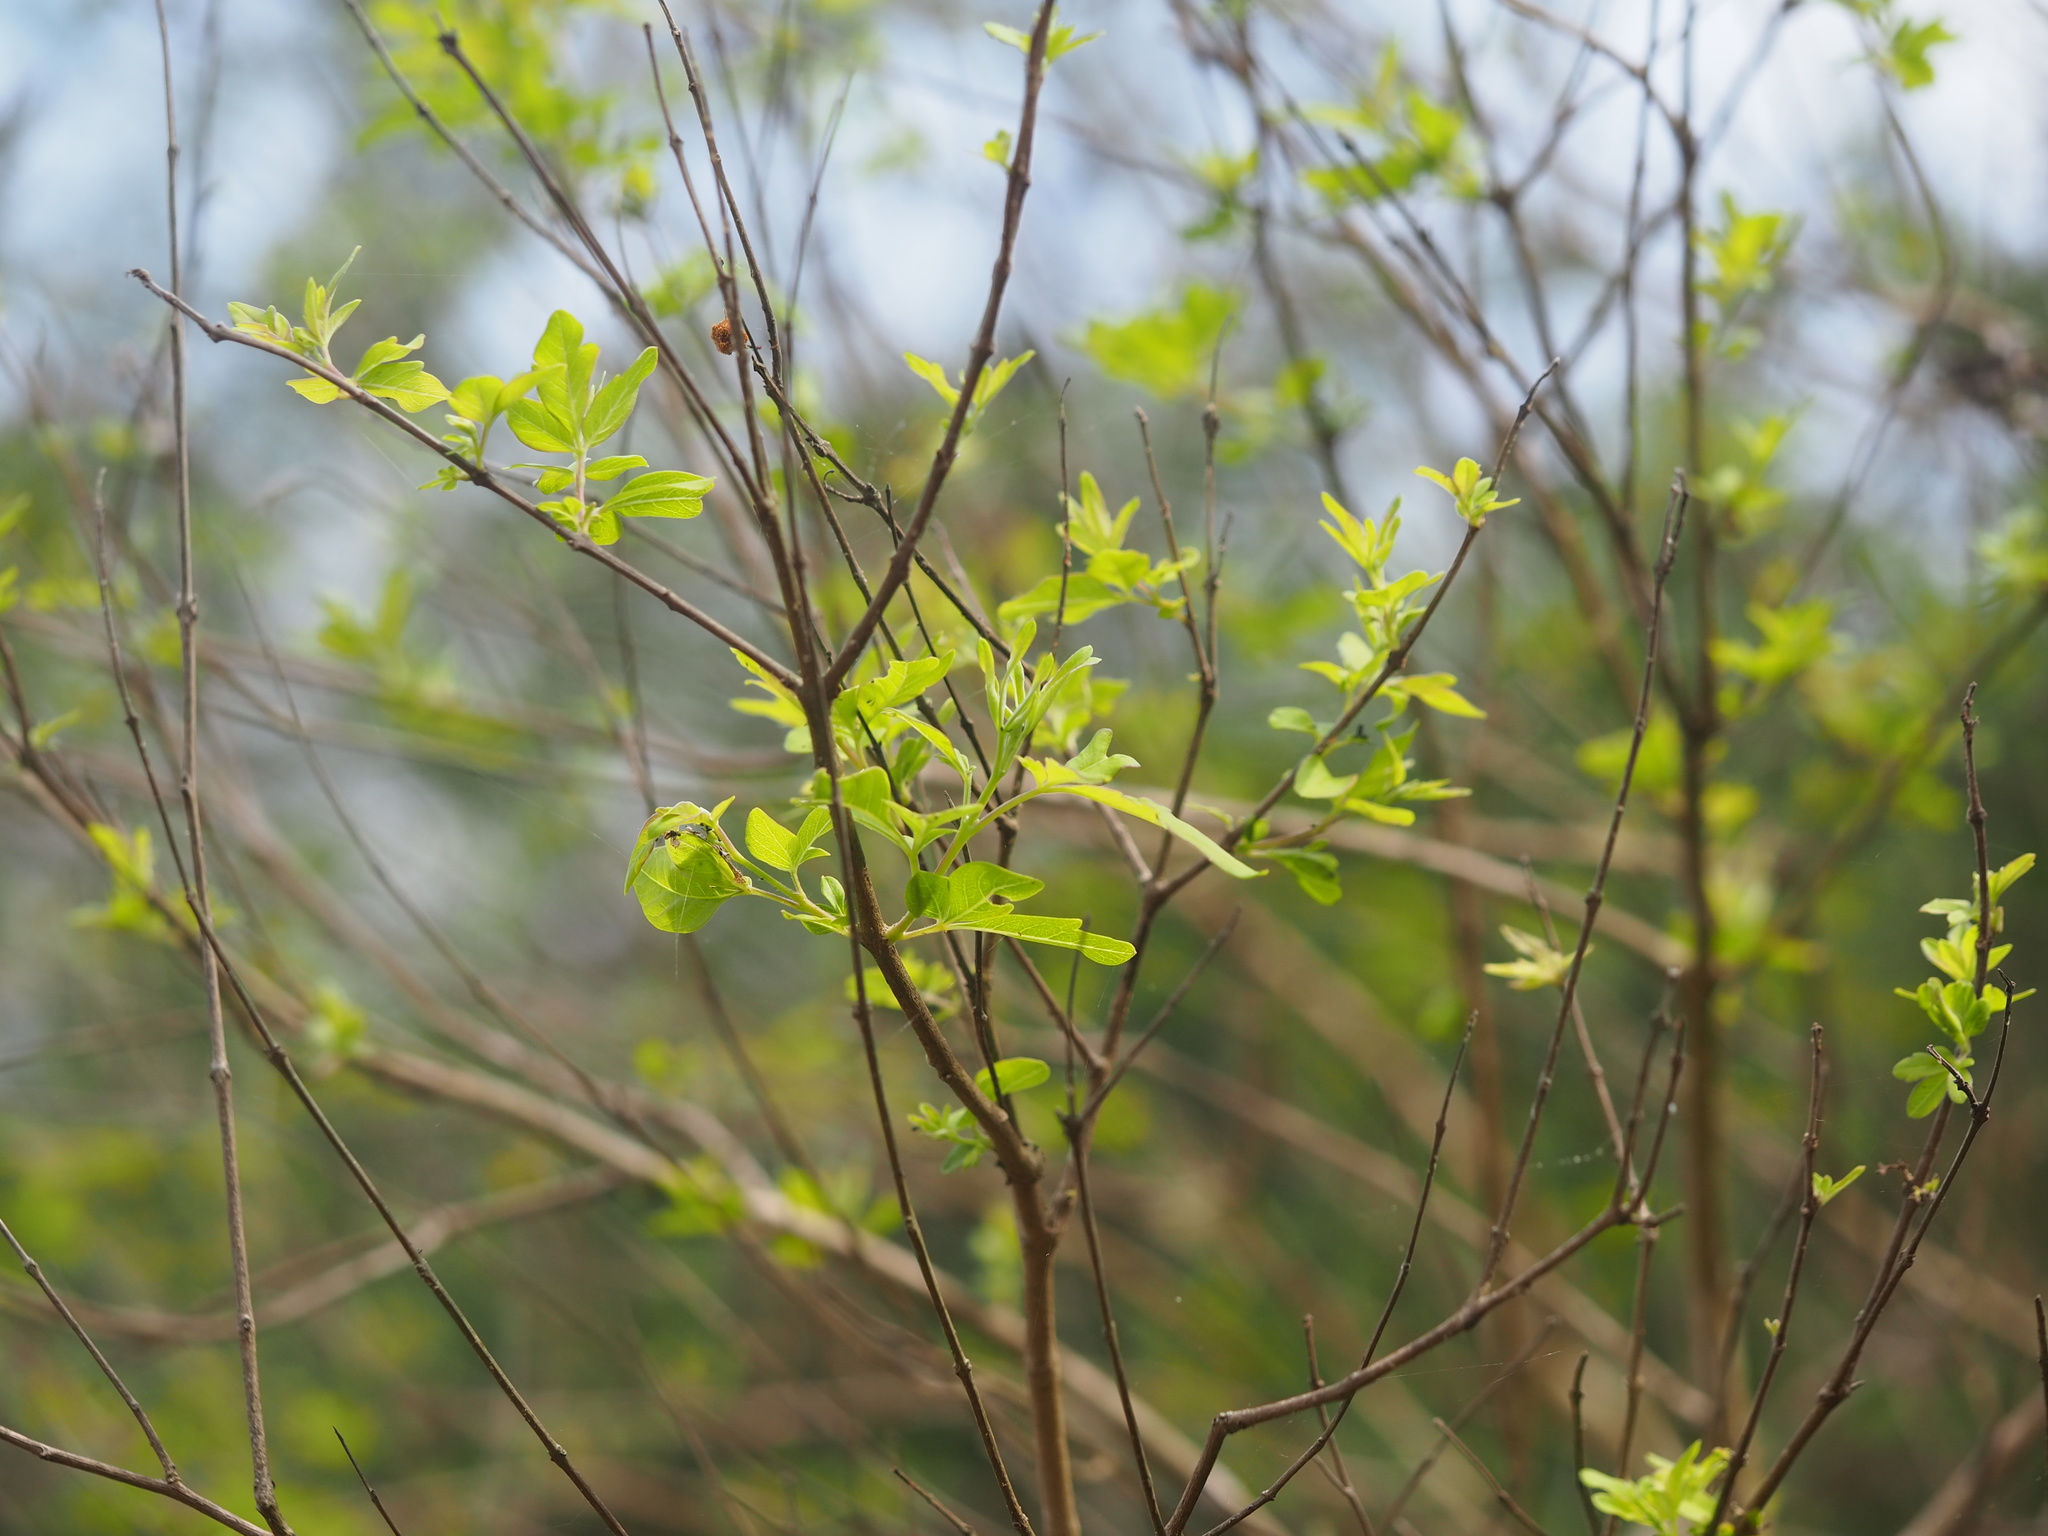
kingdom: Plantae
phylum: Tracheophyta
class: Magnoliopsida
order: Lamiales
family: Lamiaceae
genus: Vitex
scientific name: Vitex negundo
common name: Chinese chastetree
